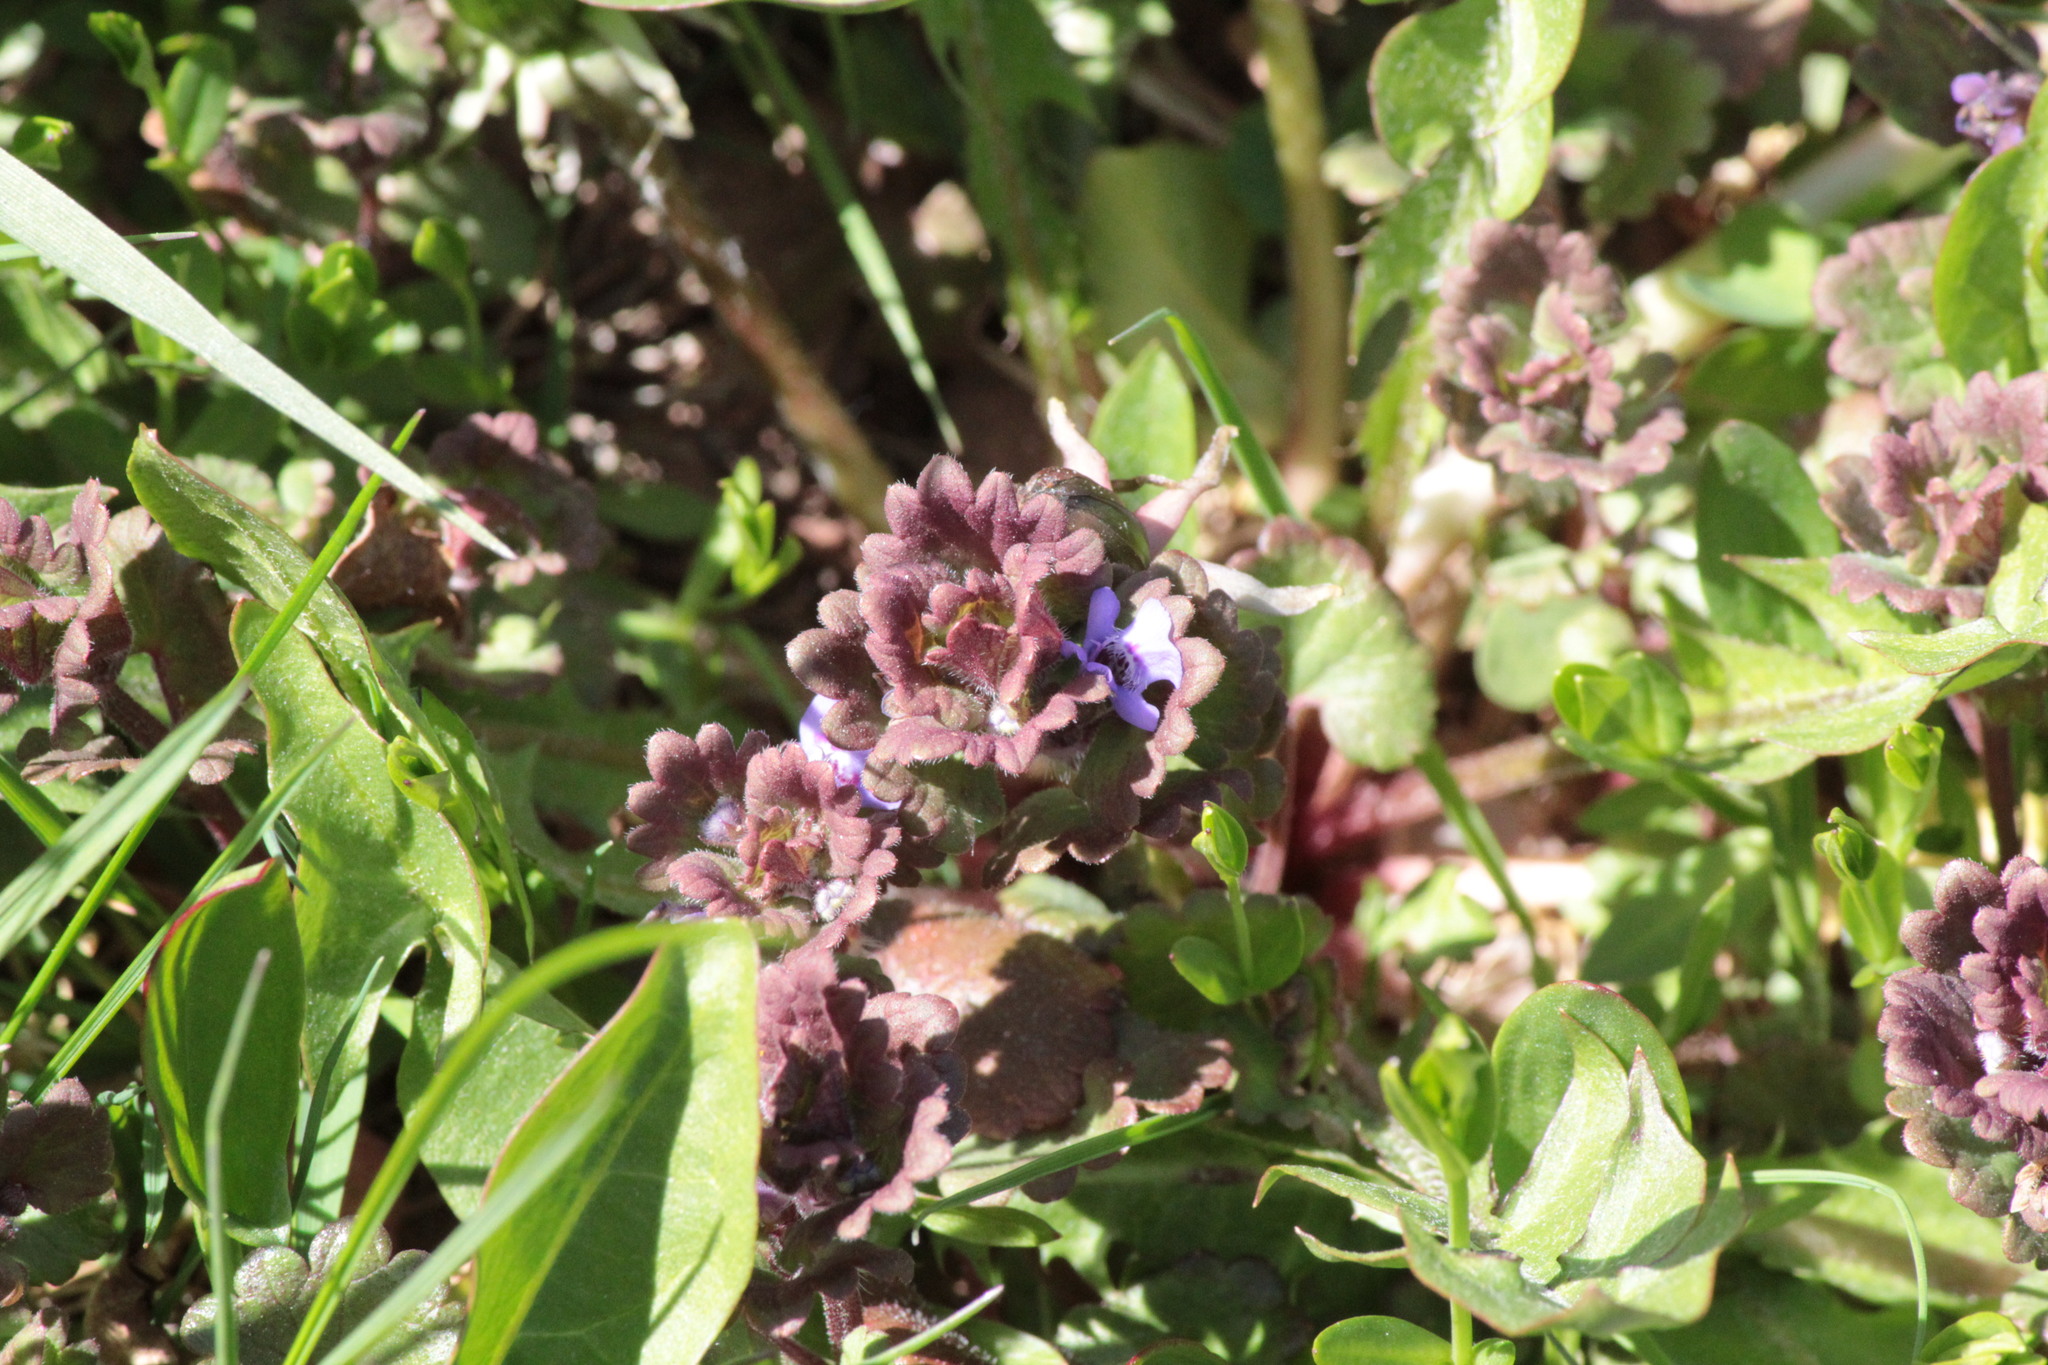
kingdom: Plantae
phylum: Tracheophyta
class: Magnoliopsida
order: Lamiales
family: Lamiaceae
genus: Glechoma
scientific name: Glechoma hederacea
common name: Ground ivy
